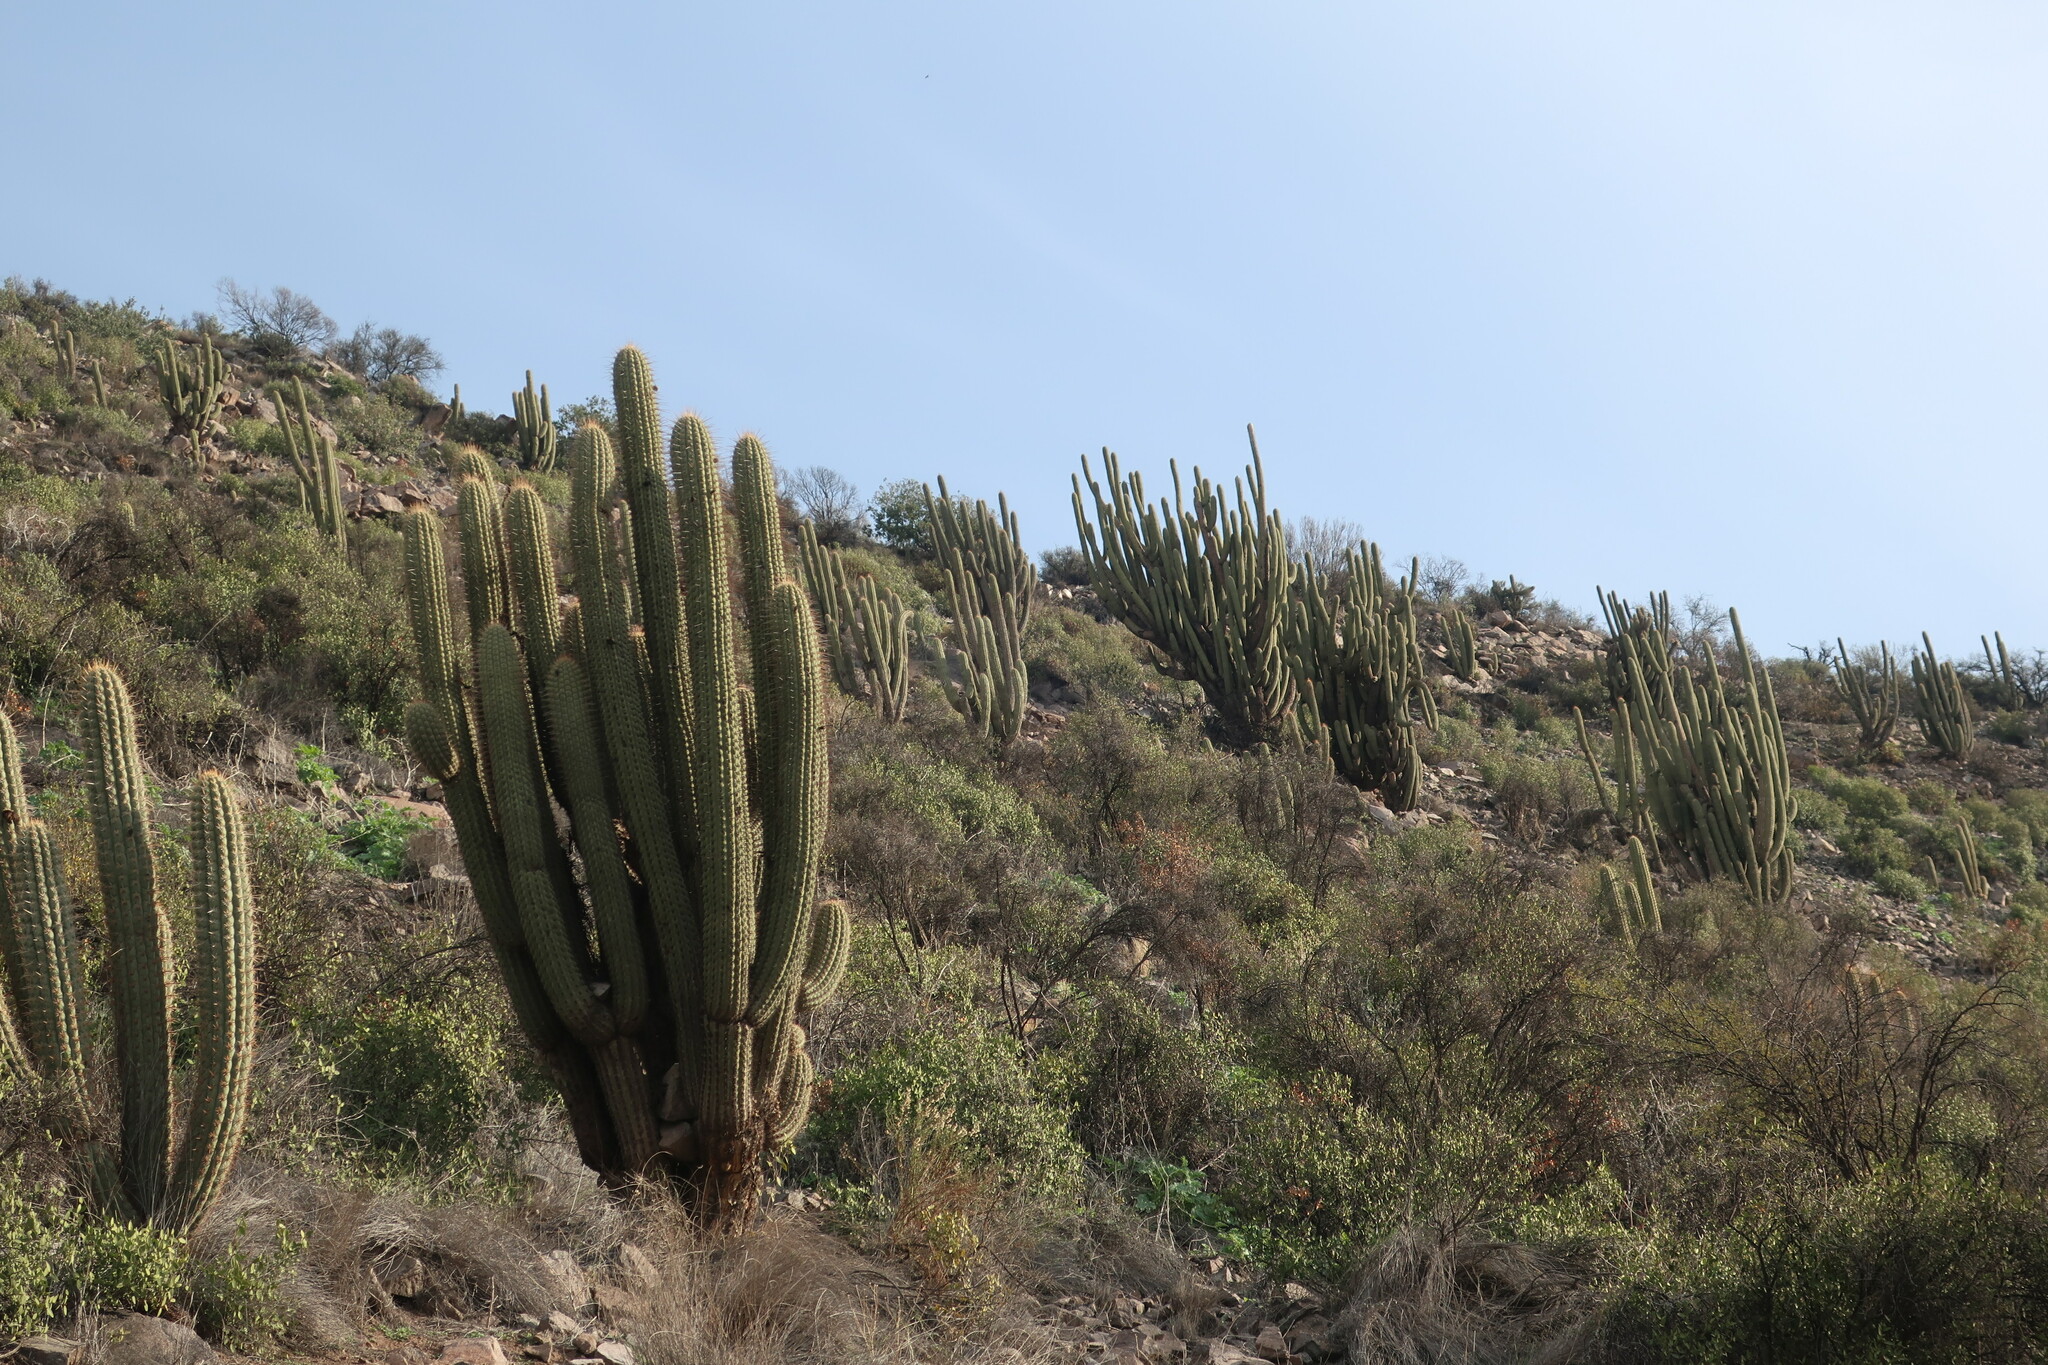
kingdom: Plantae
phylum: Tracheophyta
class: Magnoliopsida
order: Caryophyllales
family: Cactaceae
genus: Leucostele
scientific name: Leucostele chiloensis
